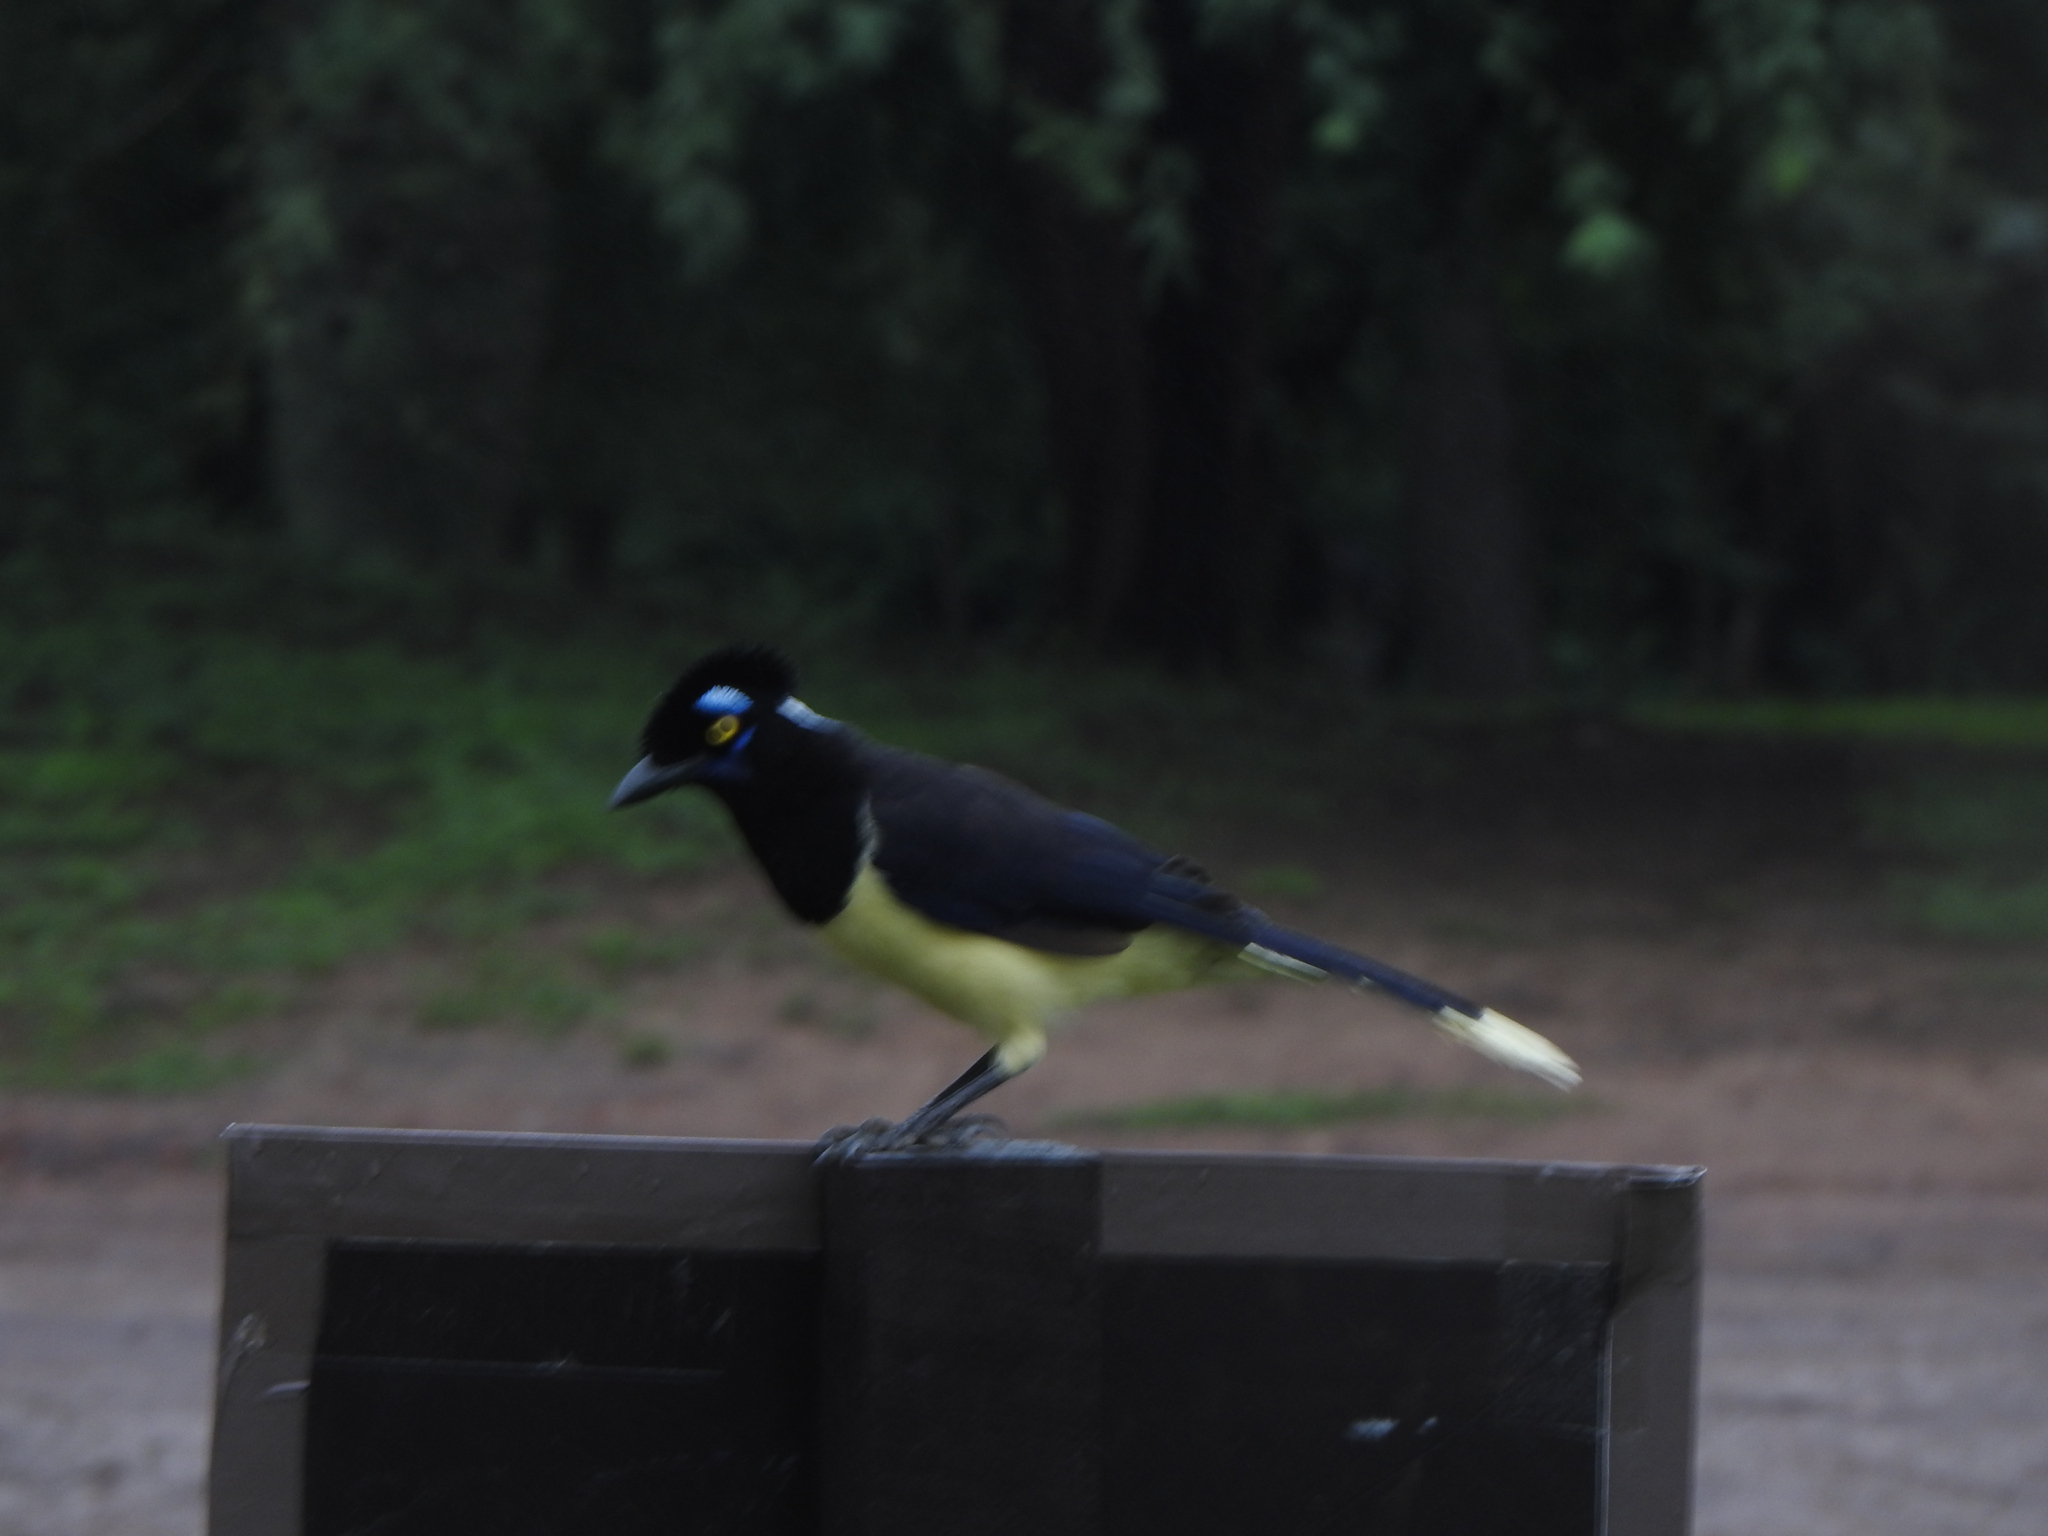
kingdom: Animalia
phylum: Chordata
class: Aves
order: Passeriformes
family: Corvidae
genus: Cyanocorax
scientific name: Cyanocorax chrysops
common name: Plush-crested jay
